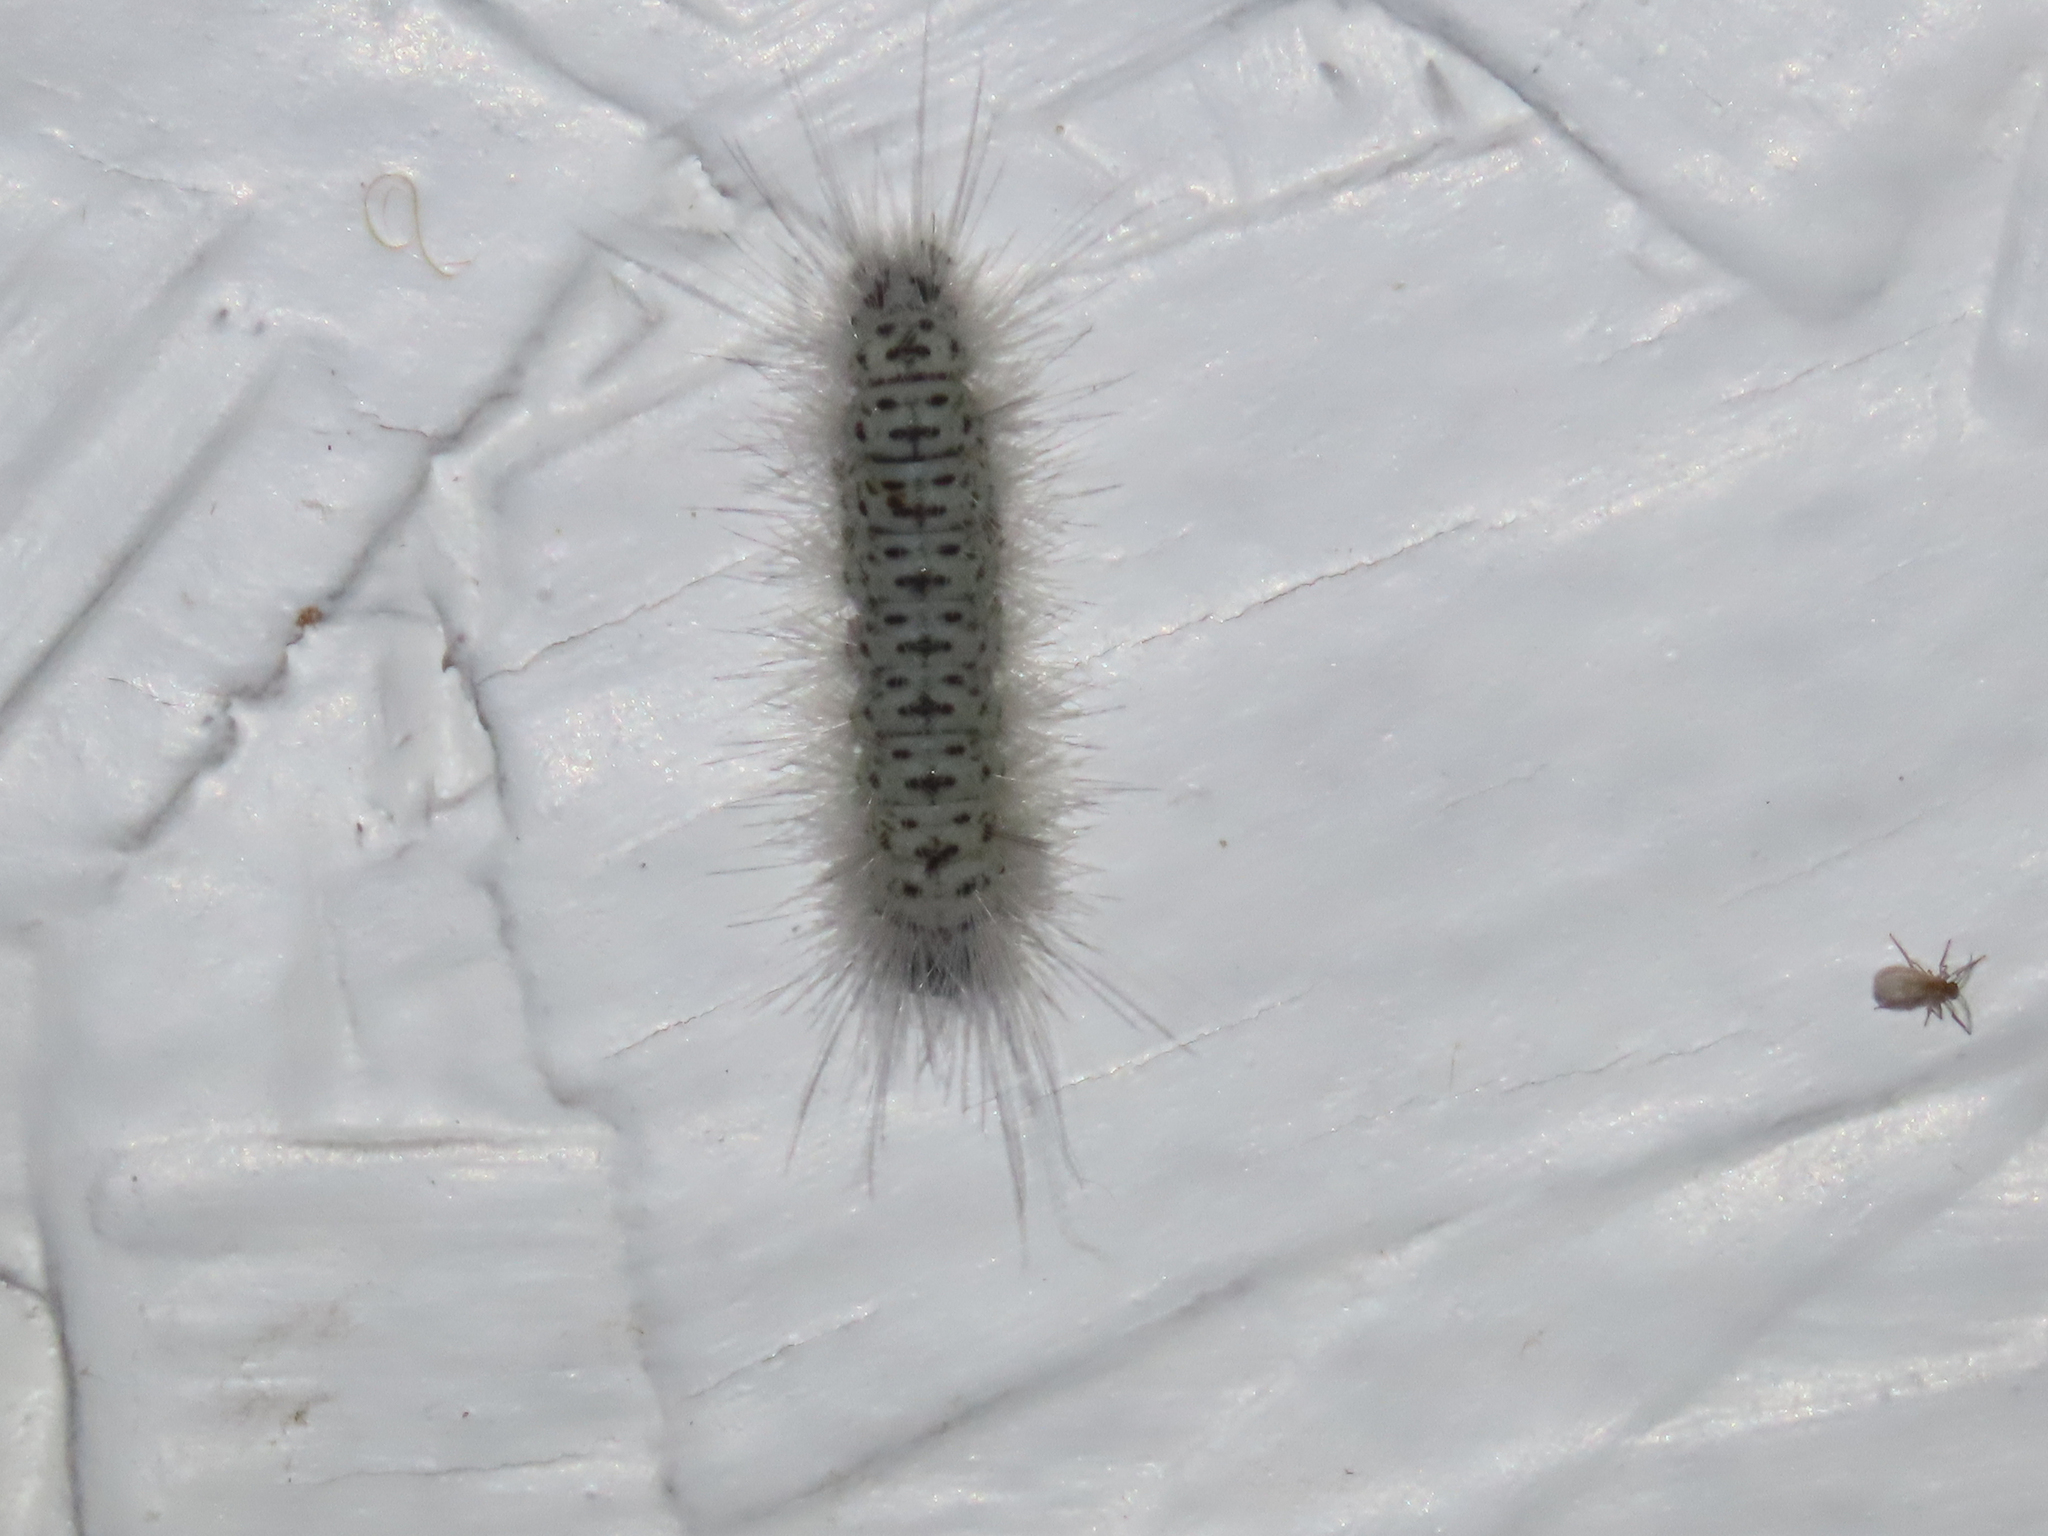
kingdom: Animalia
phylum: Arthropoda
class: Insecta
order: Lepidoptera
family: Erebidae
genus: Lophocampa
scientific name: Lophocampa caryae
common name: Hickory tussock moth
